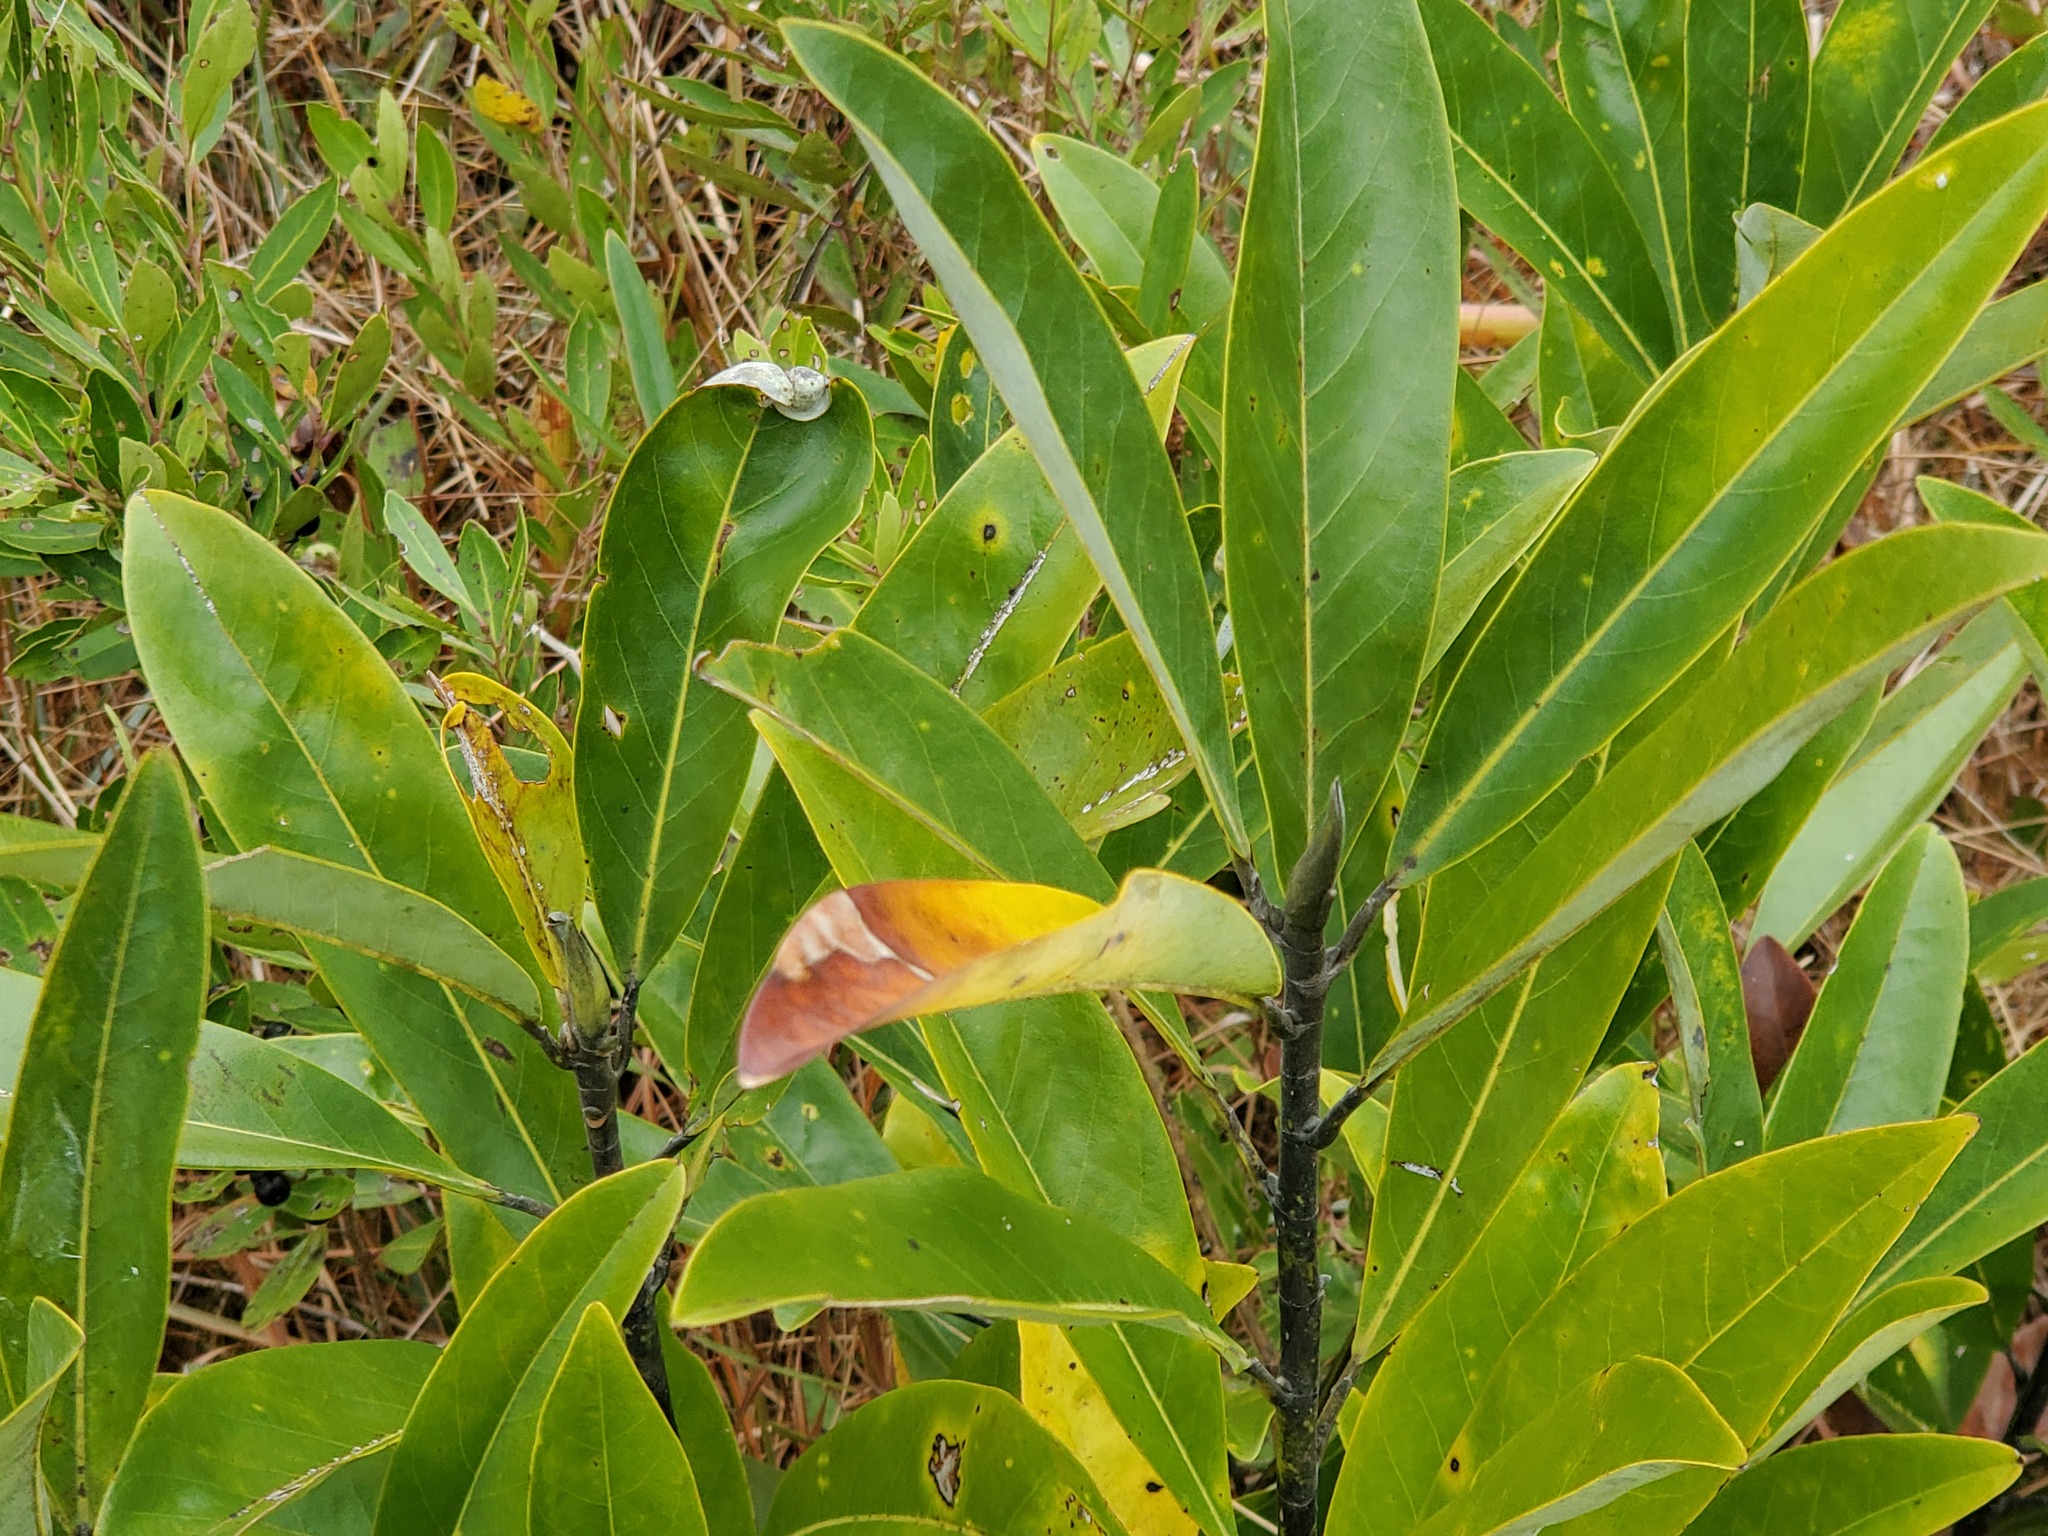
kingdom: Plantae
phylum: Tracheophyta
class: Magnoliopsida
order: Magnoliales
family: Magnoliaceae
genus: Magnolia
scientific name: Magnolia virginiana
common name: Swamp bay
